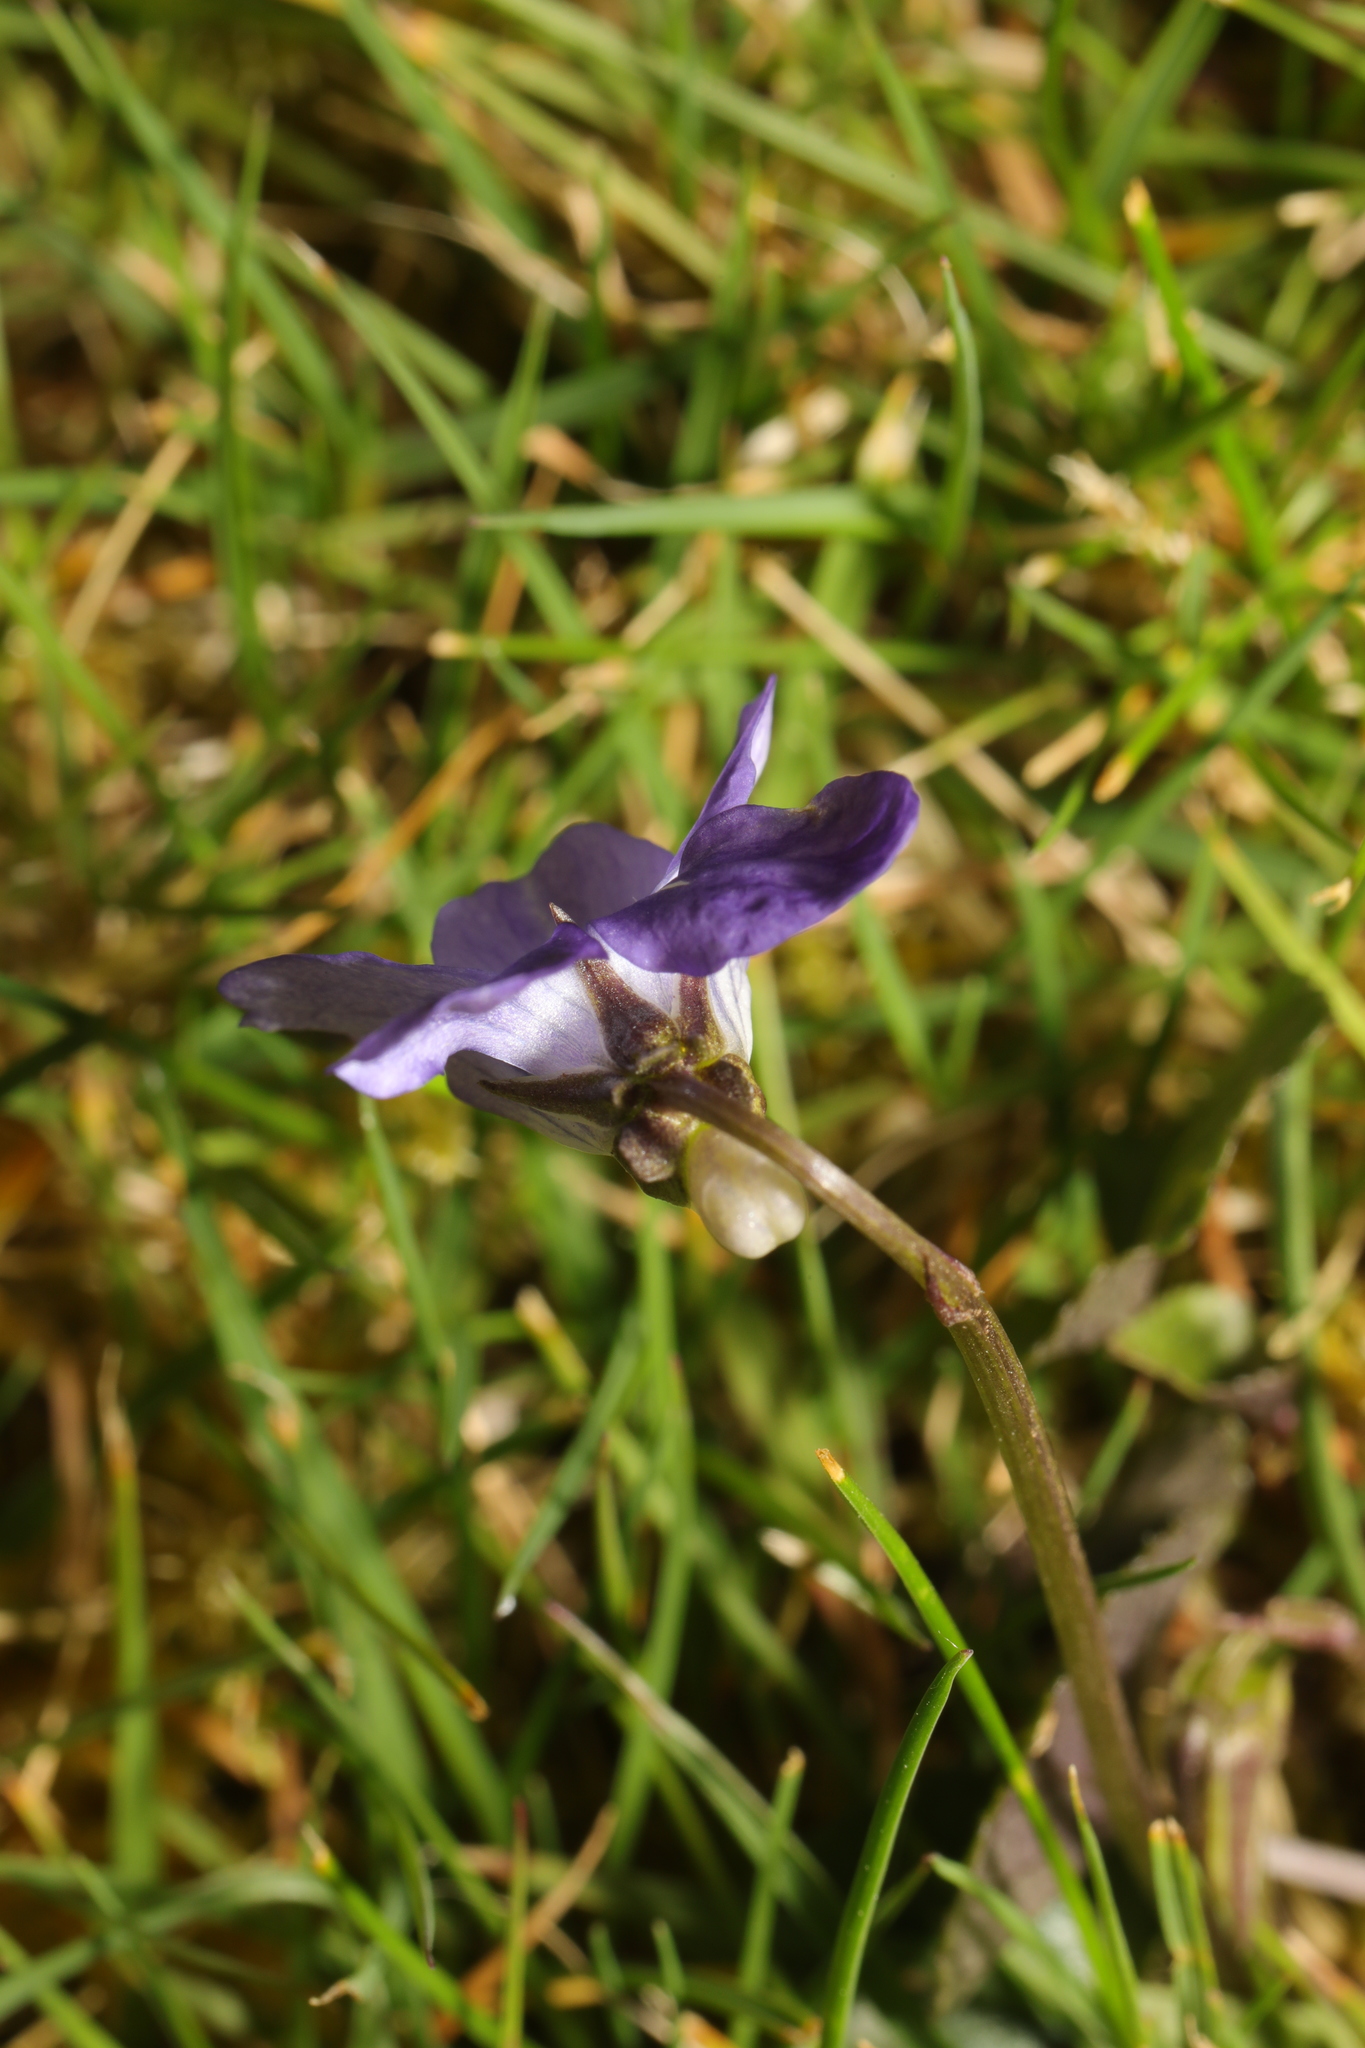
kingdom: Plantae
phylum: Tracheophyta
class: Magnoliopsida
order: Malpighiales
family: Violaceae
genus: Viola
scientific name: Viola riviniana
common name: Common dog-violet
